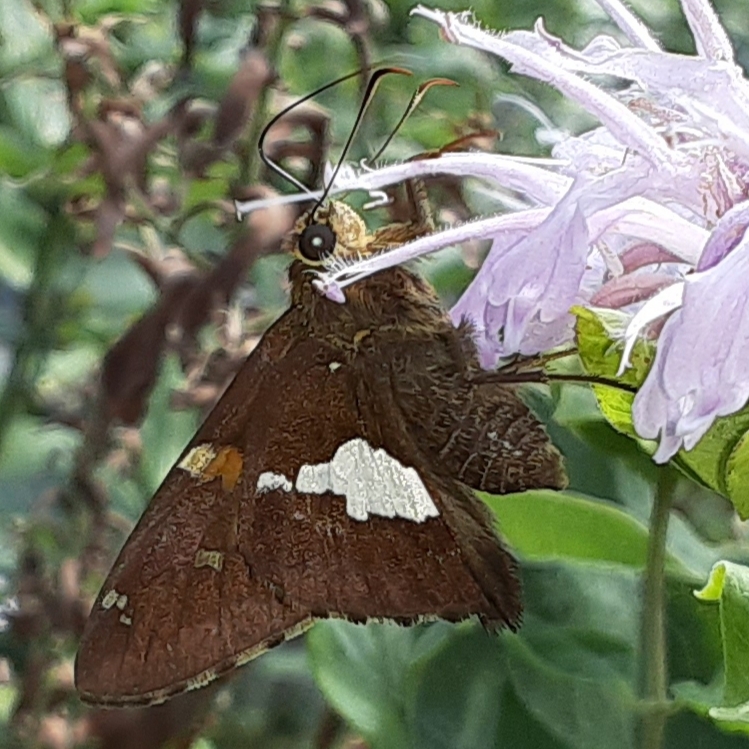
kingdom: Animalia
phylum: Arthropoda
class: Insecta
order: Lepidoptera
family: Hesperiidae
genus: Epargyreus
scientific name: Epargyreus clarus
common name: Silver-spotted skipper
